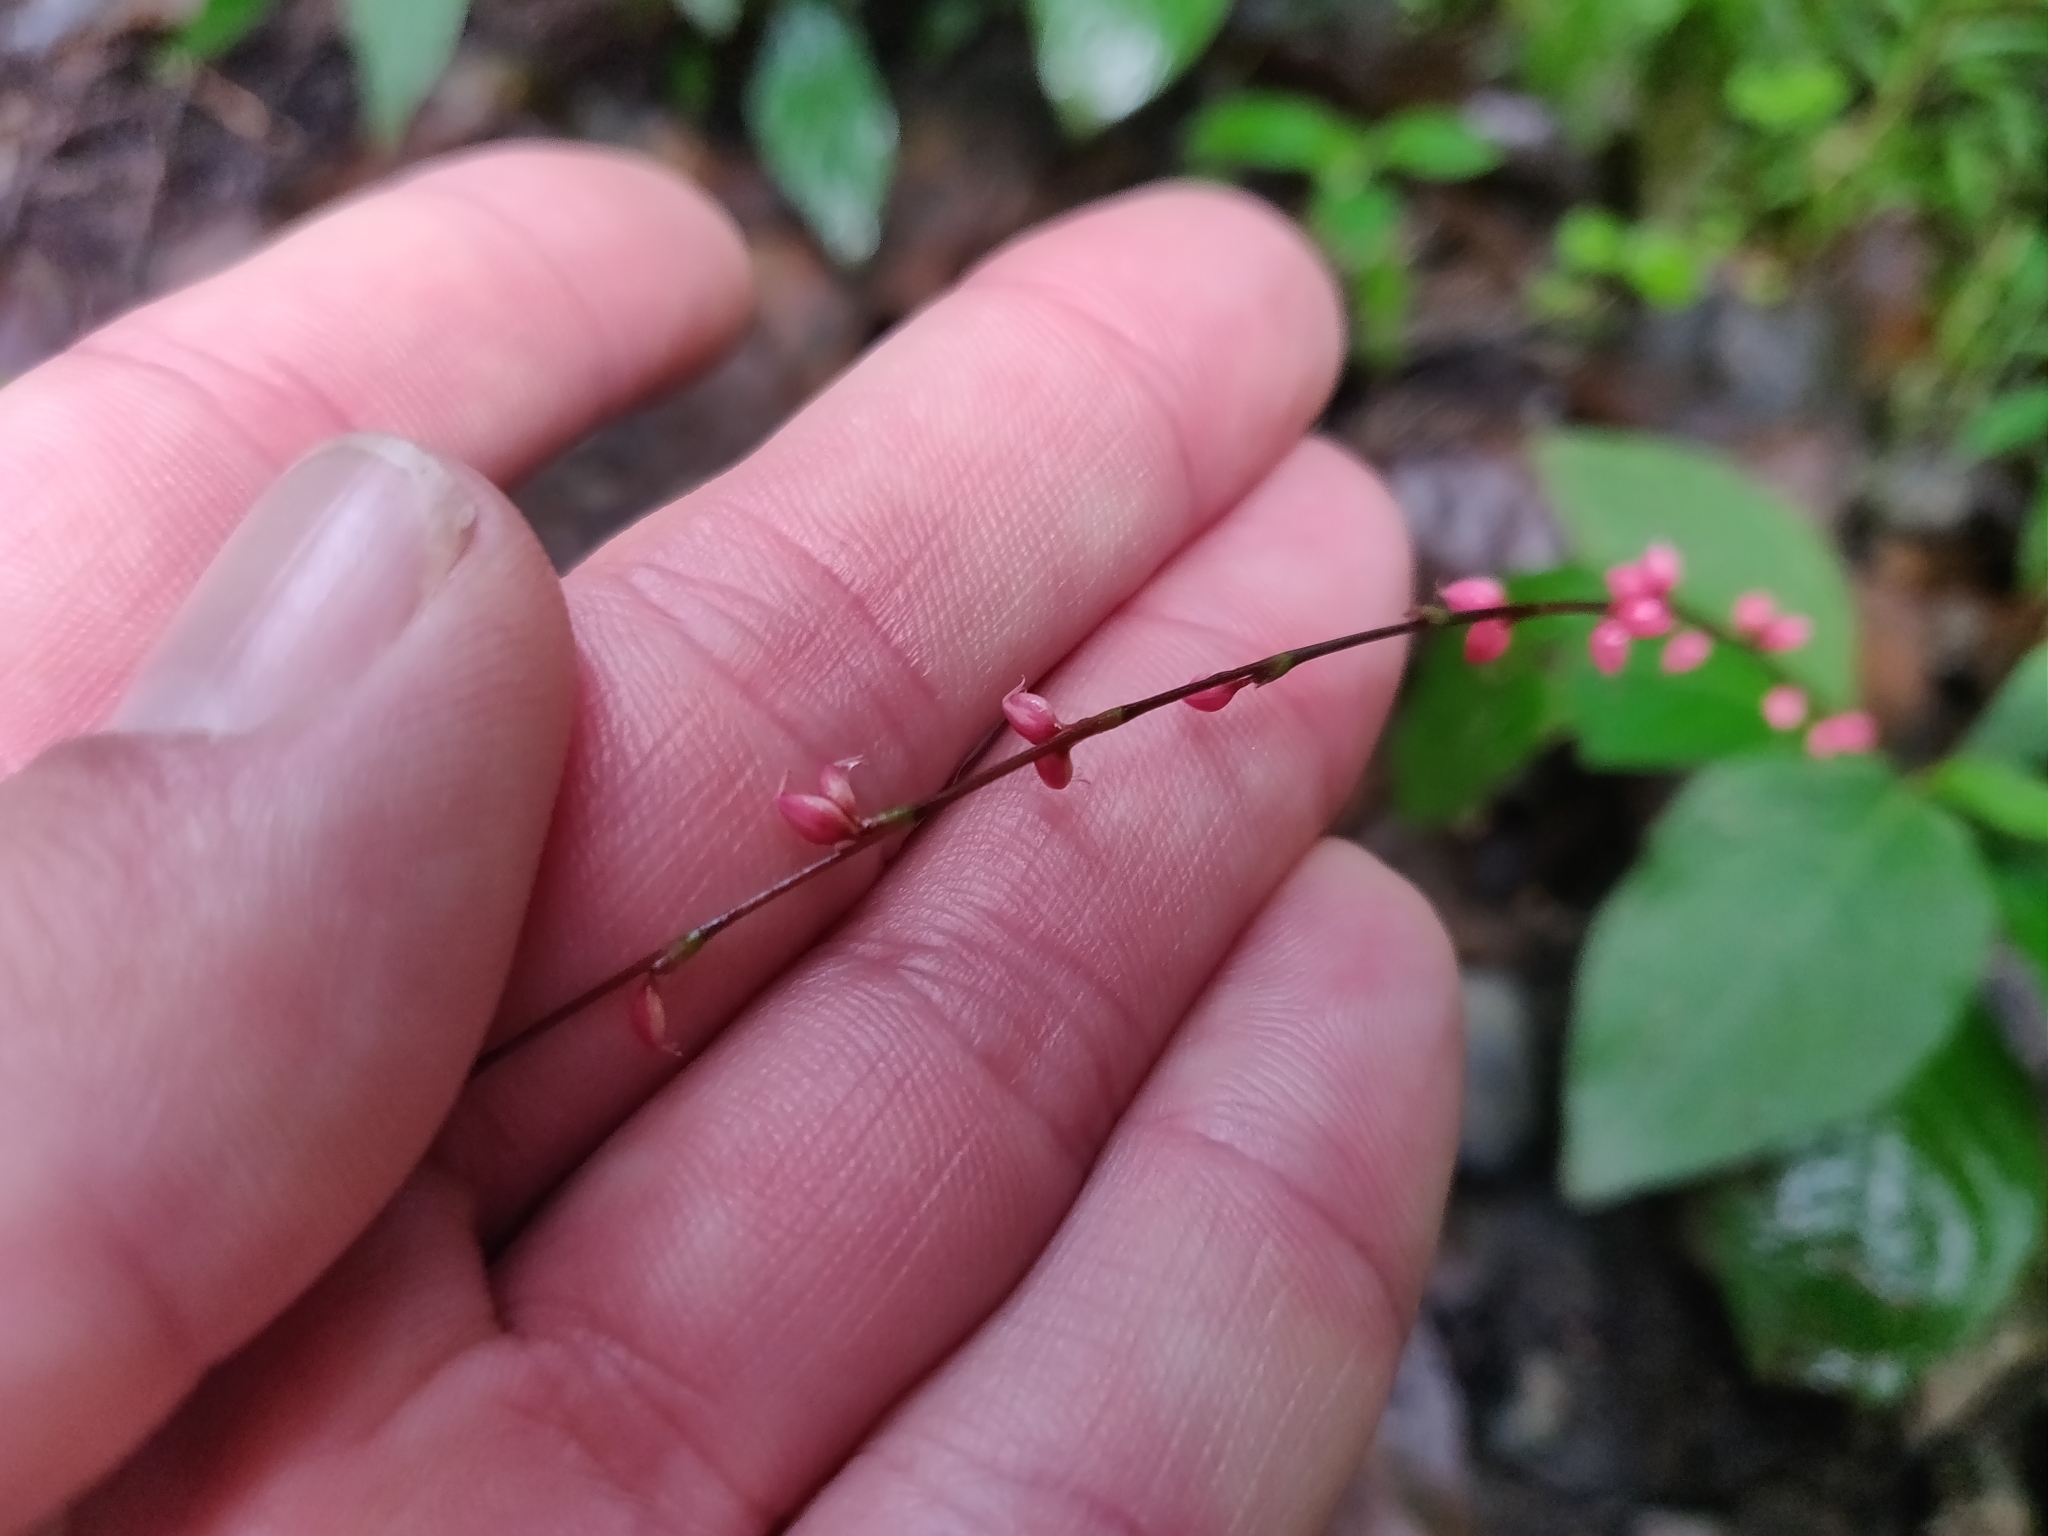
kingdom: Plantae
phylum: Tracheophyta
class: Magnoliopsida
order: Caryophyllales
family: Polygonaceae
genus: Persicaria
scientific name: Persicaria filiformis
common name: Asian jumpseed
